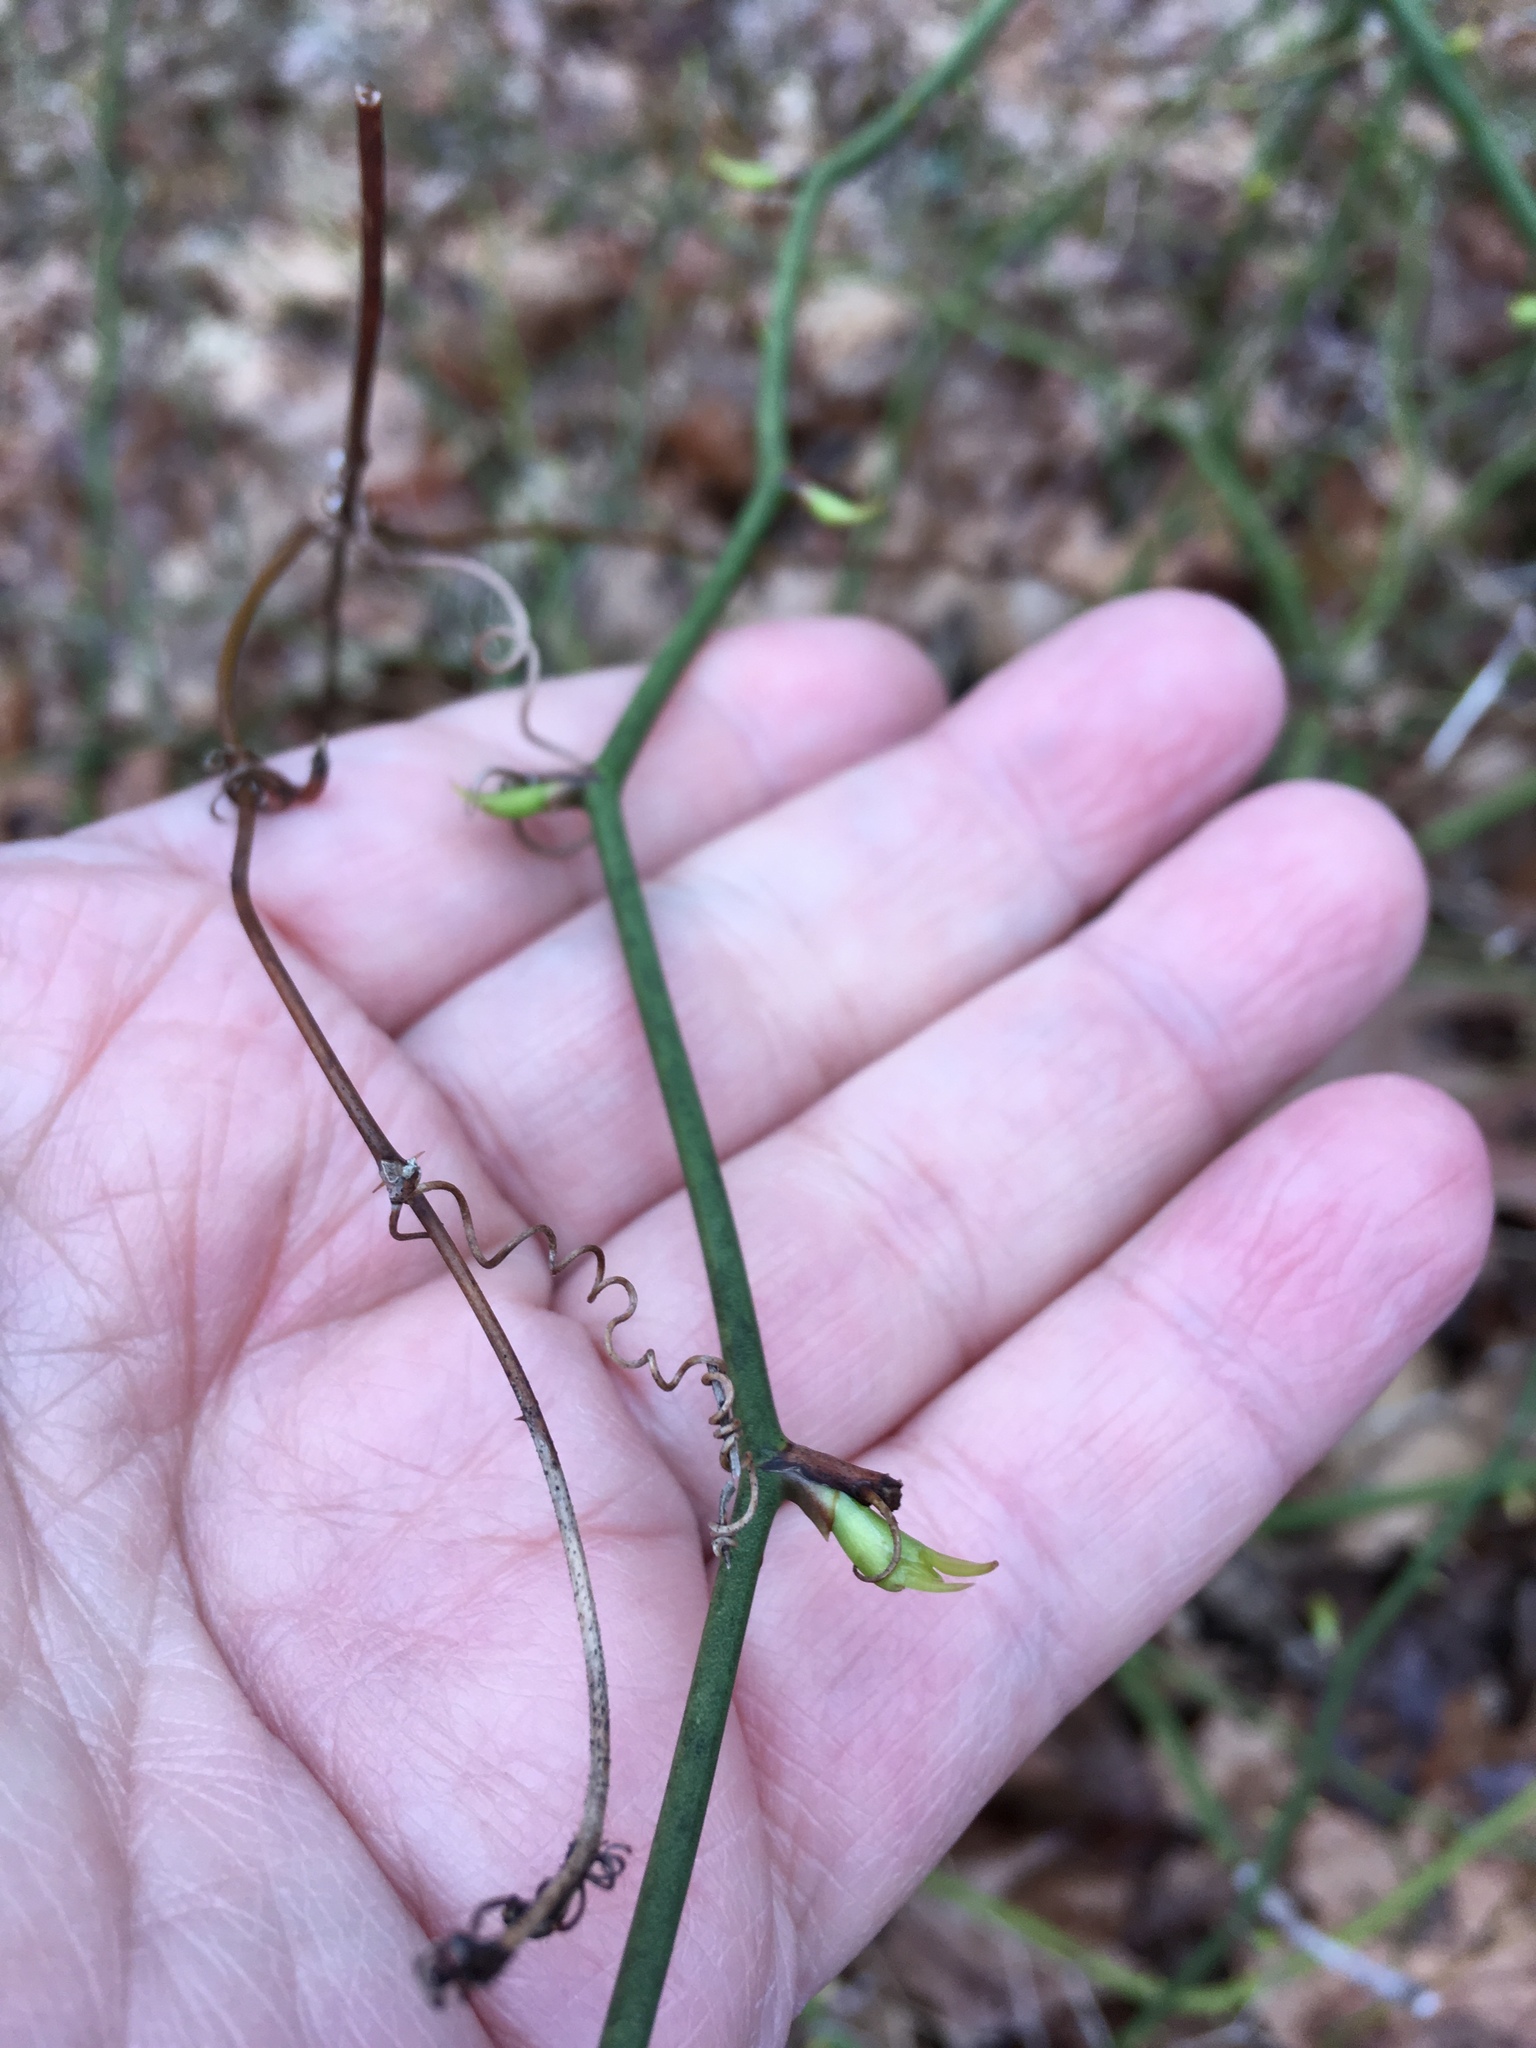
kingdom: Plantae
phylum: Tracheophyta
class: Liliopsida
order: Liliales
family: Smilacaceae
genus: Smilax
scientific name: Smilax rotundifolia
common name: Bullbriar
